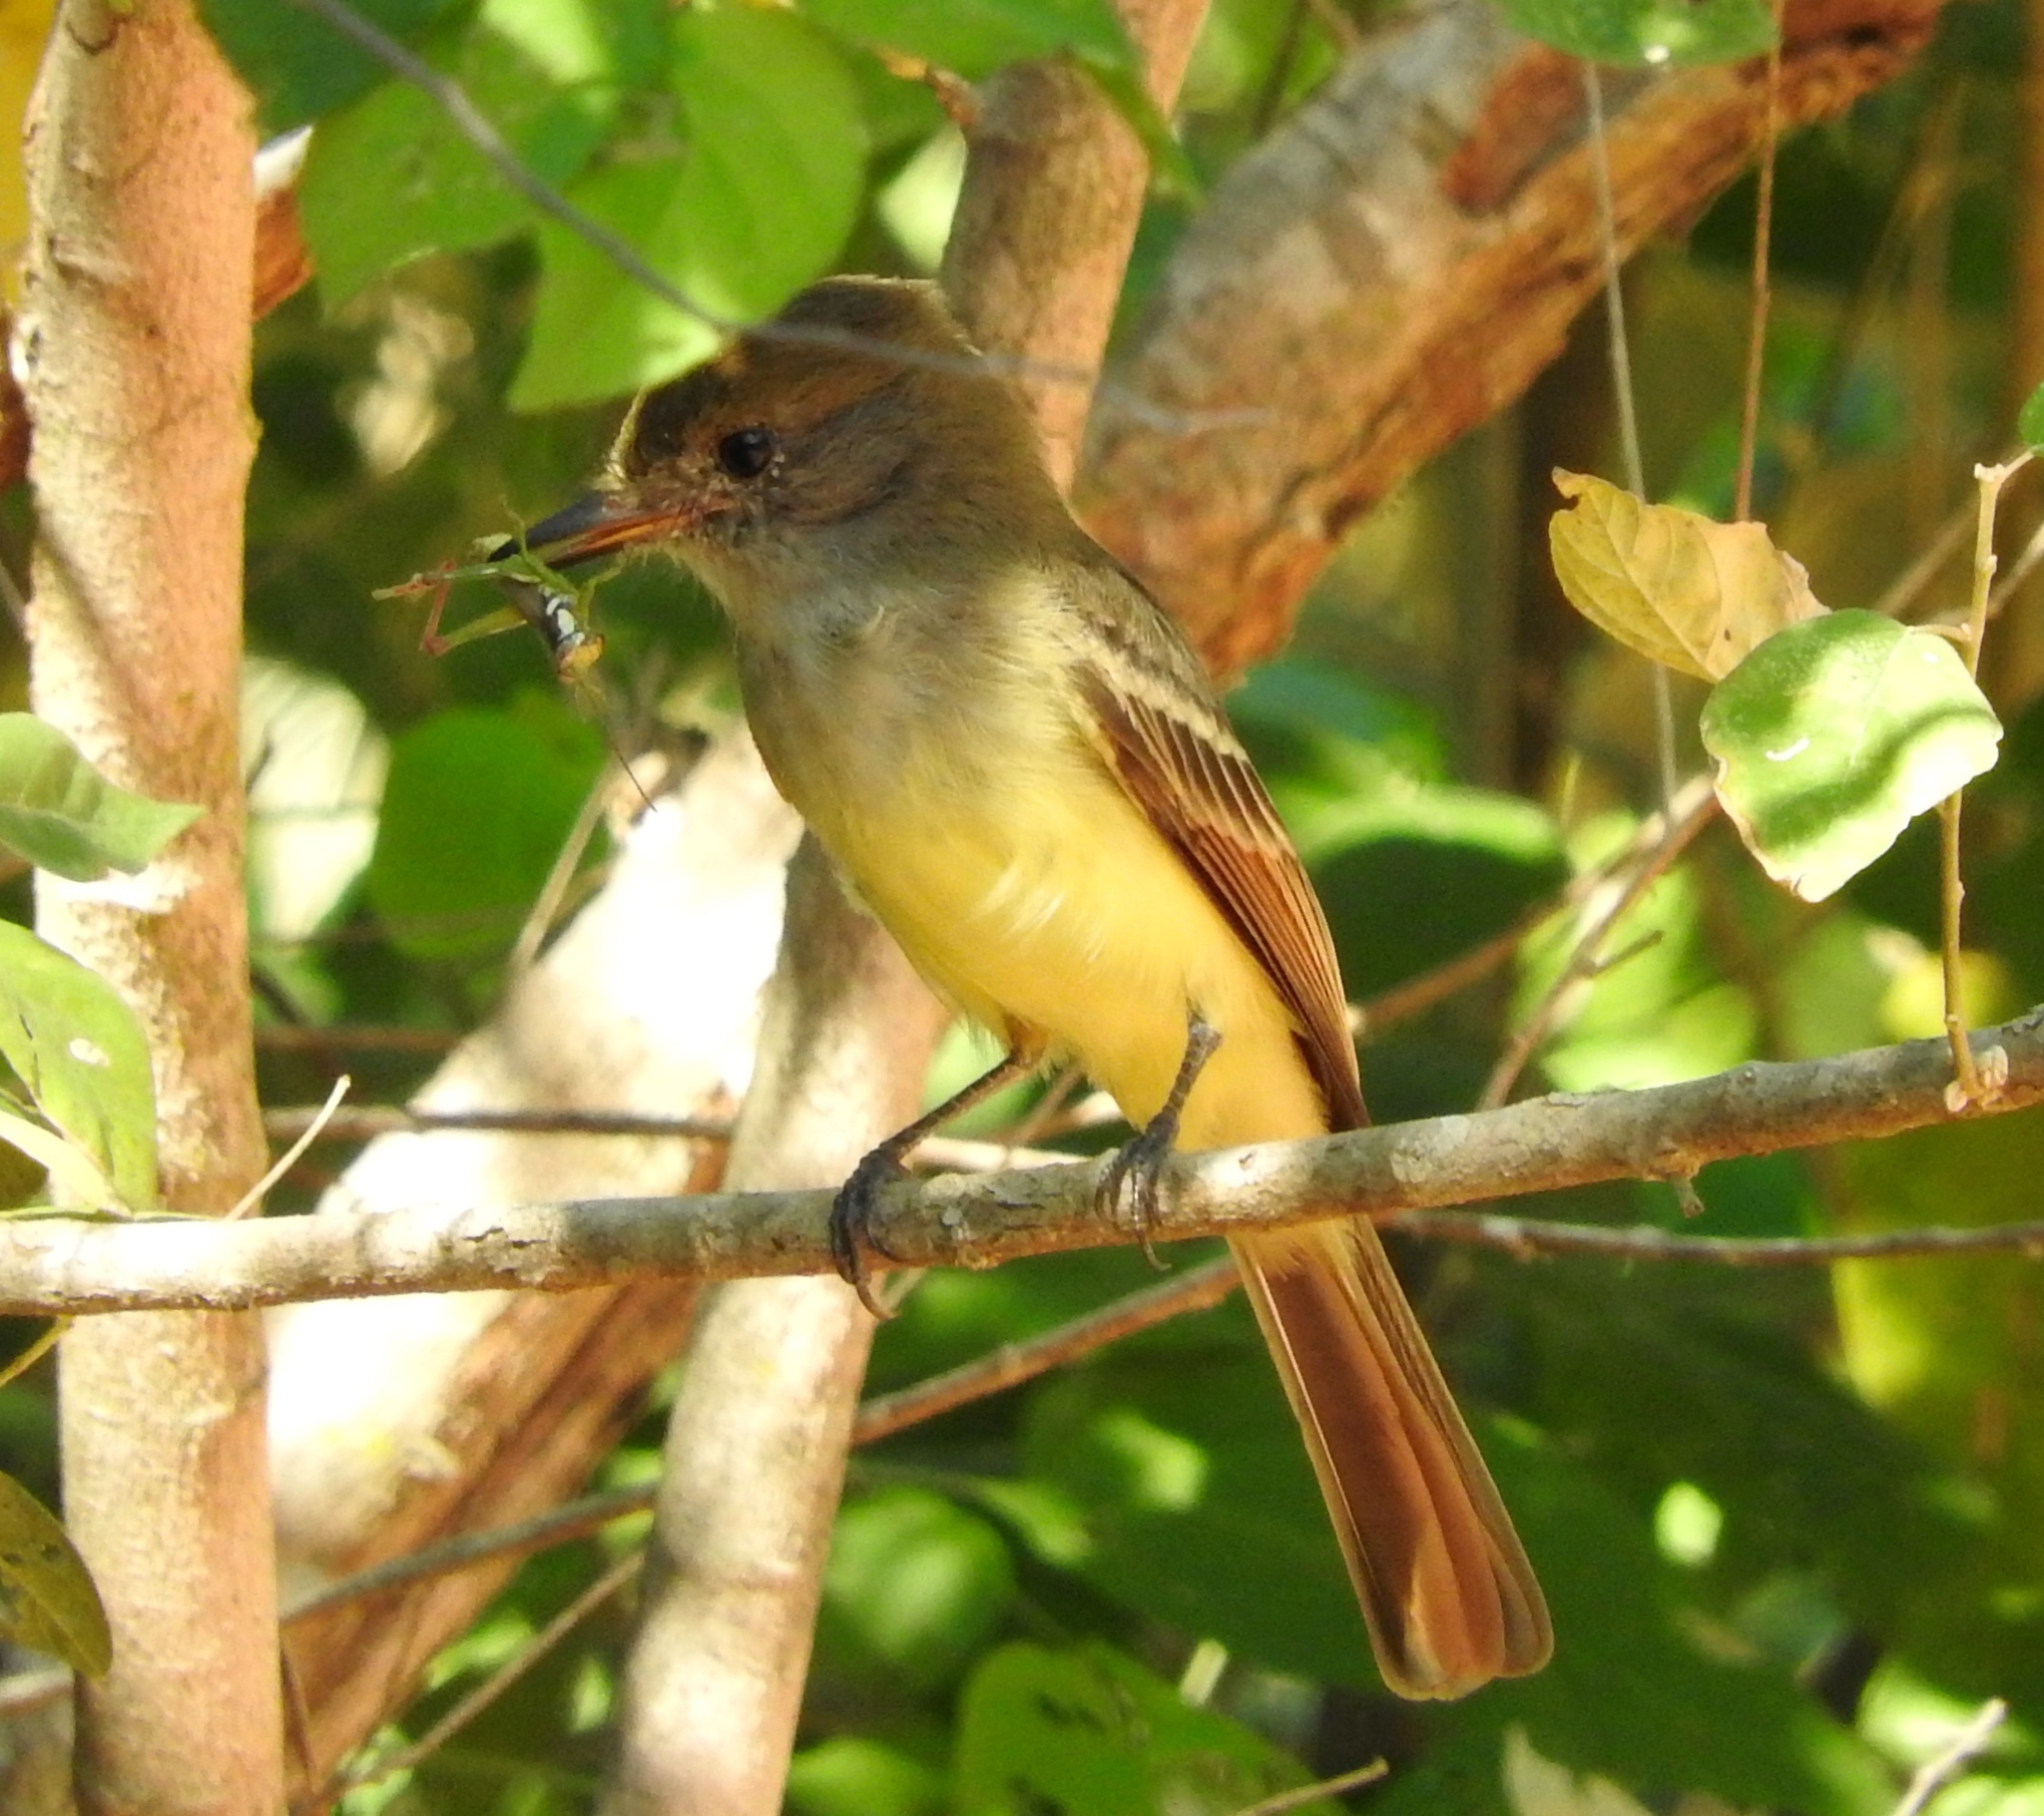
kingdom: Animalia
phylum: Chordata
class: Aves
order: Passeriformes
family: Tyrannidae
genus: Myiarchus
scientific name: Myiarchus tyrannulus
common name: Brown-crested flycatcher
